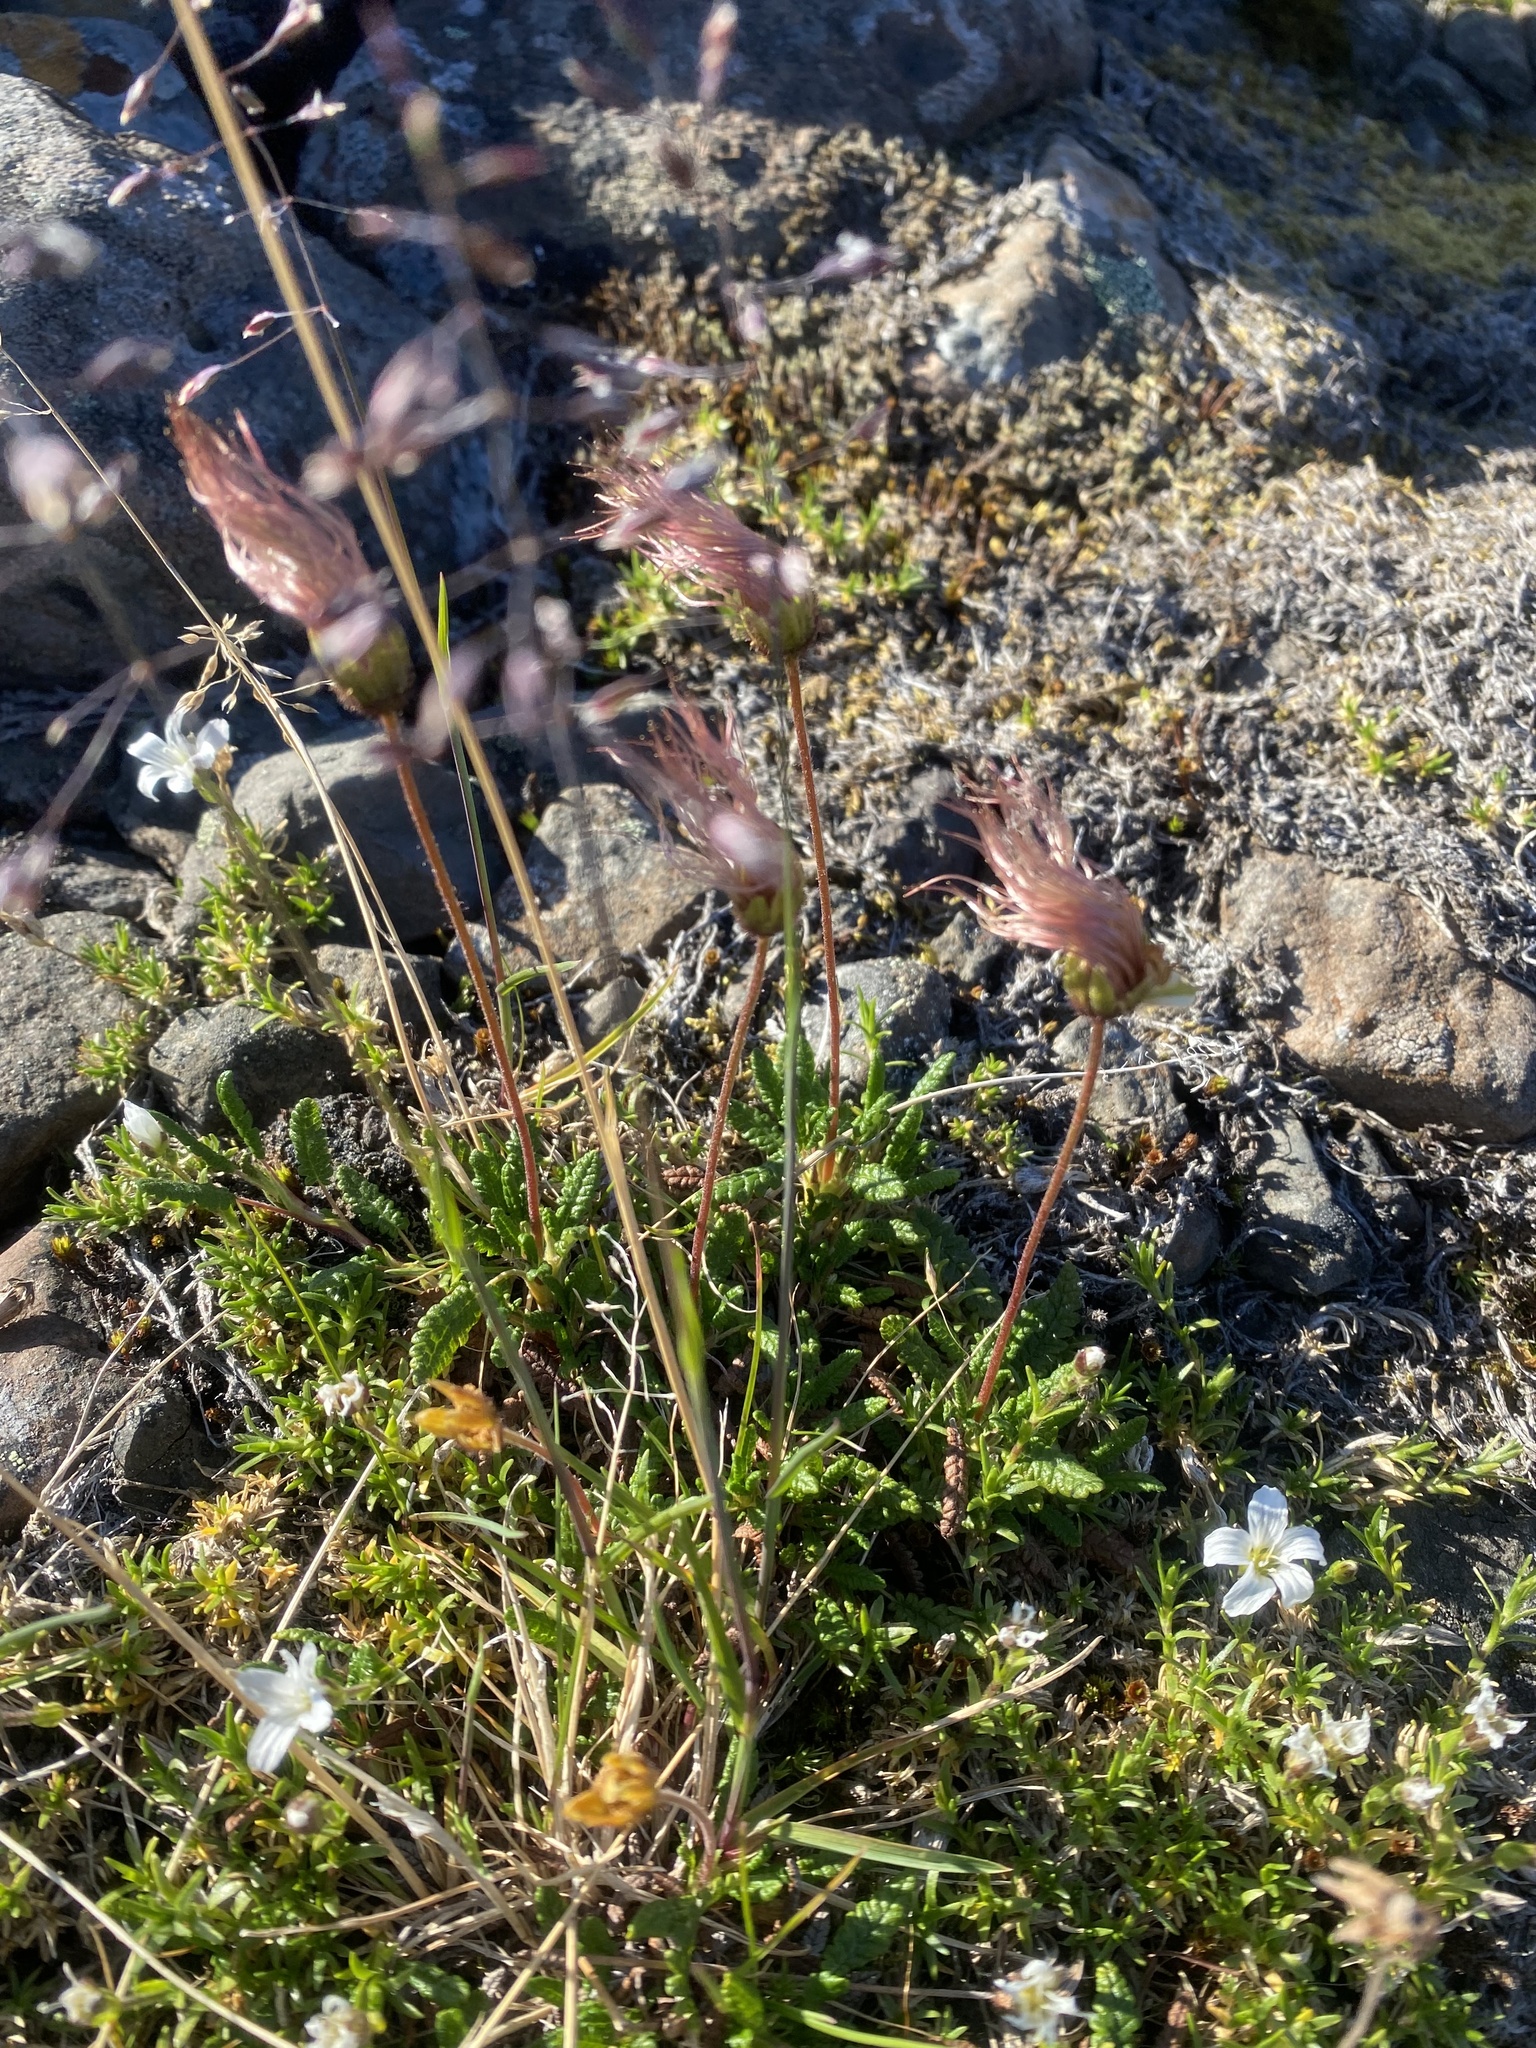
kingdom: Plantae
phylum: Tracheophyta
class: Magnoliopsida
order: Rosales
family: Rosaceae
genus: Dryas
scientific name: Dryas octopetala
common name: Eight-petal mountain-avens
